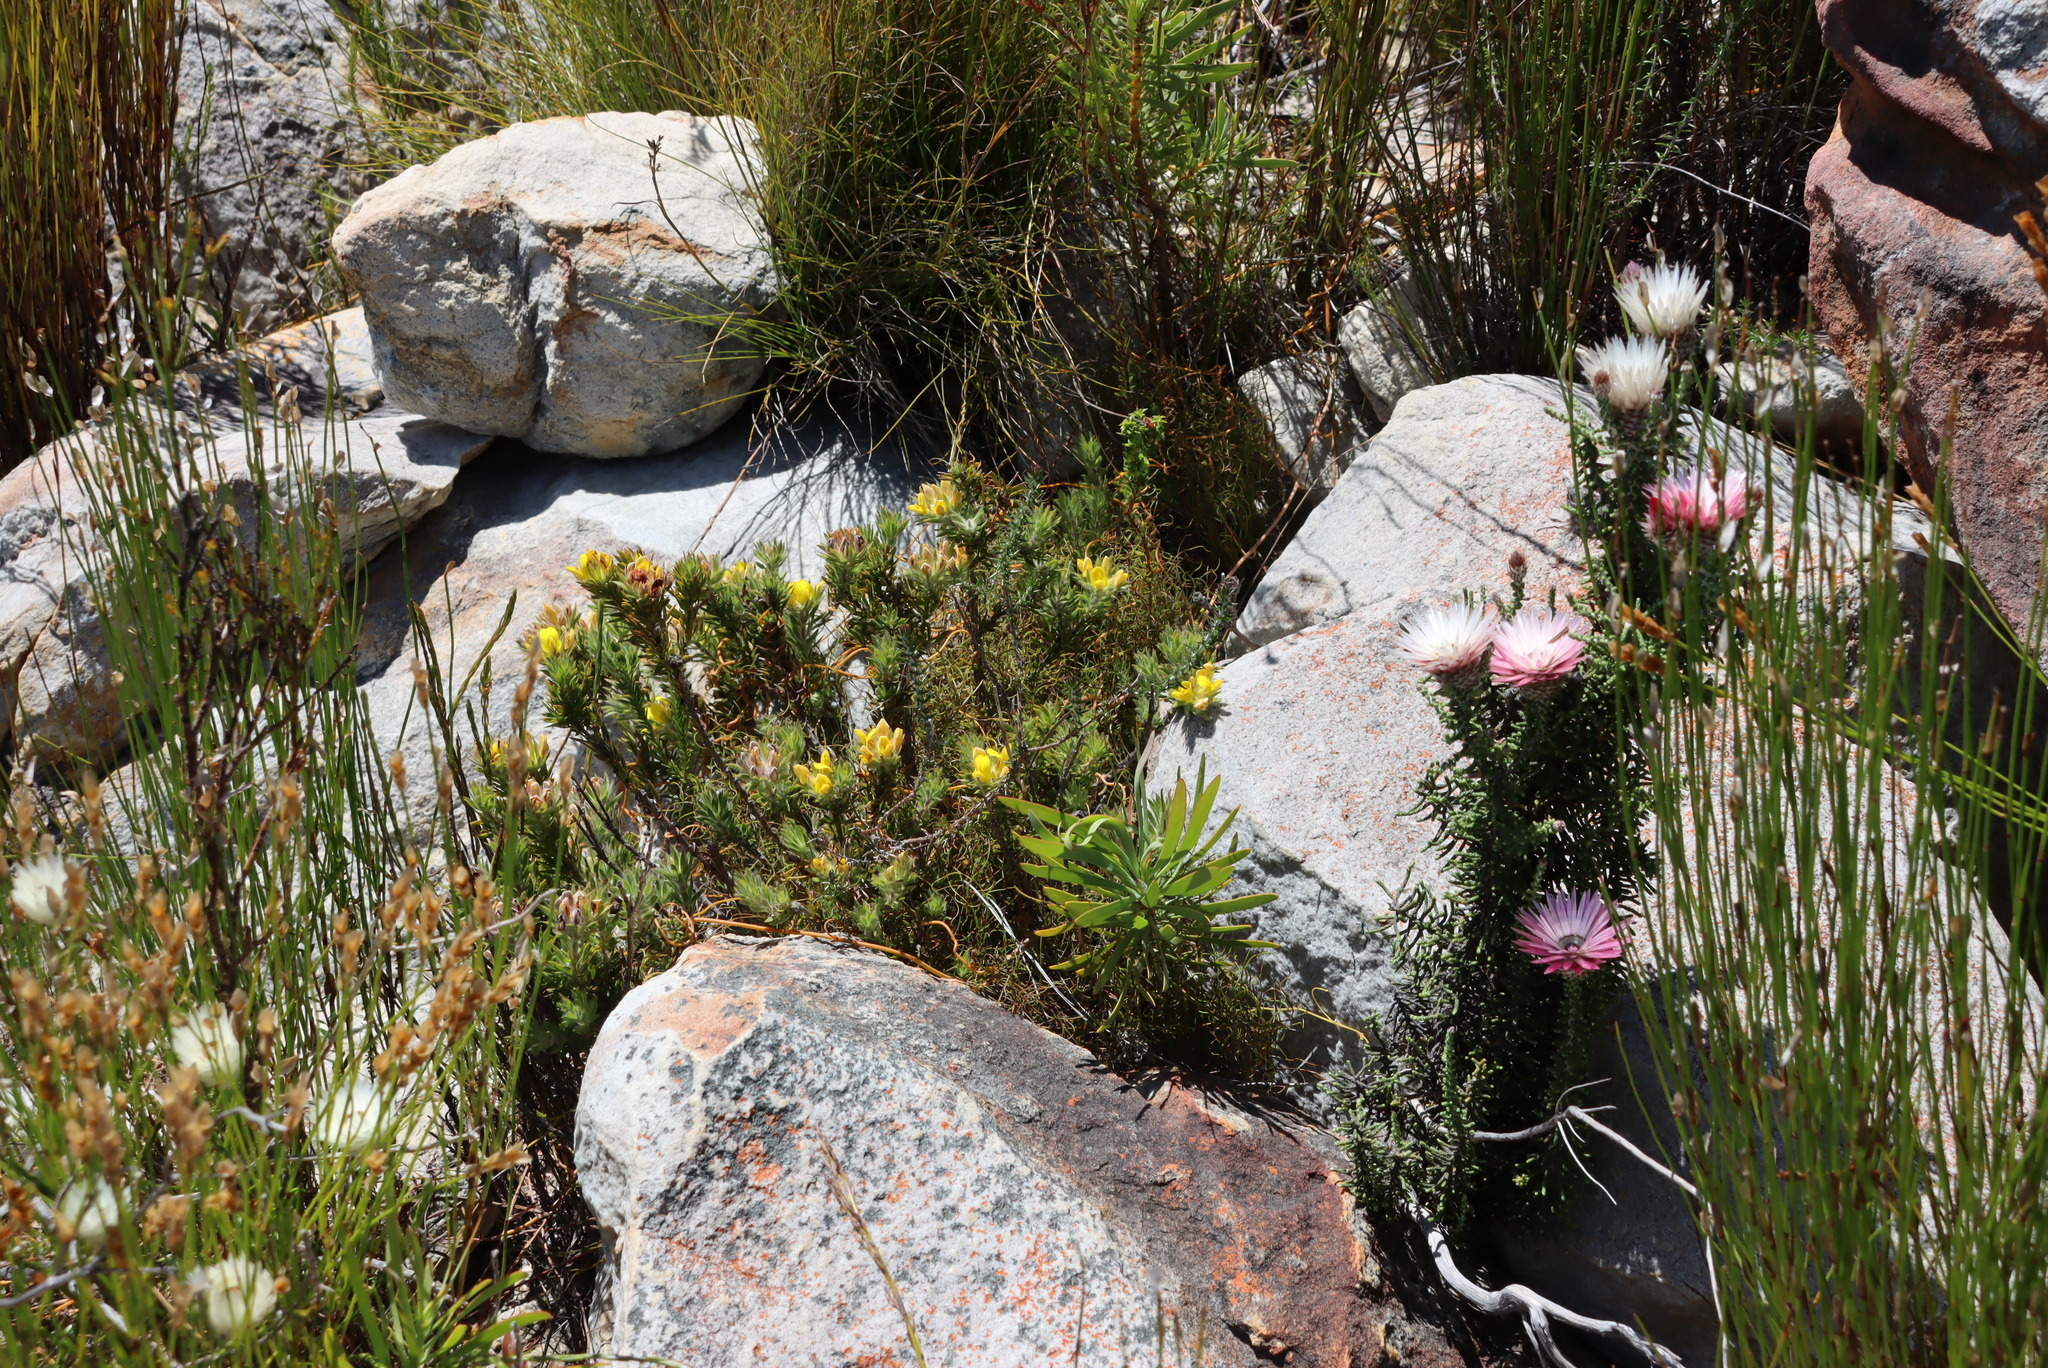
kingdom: Plantae
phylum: Tracheophyta
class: Magnoliopsida
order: Asterales
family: Asteraceae
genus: Phaenocoma
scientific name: Phaenocoma prolifera
